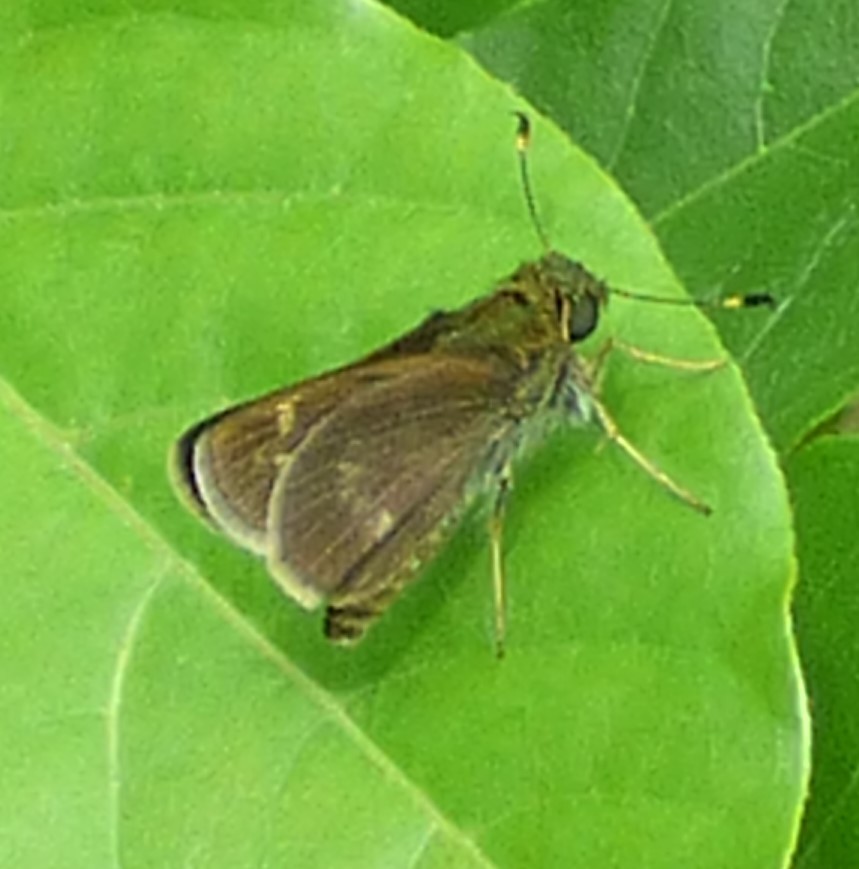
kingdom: Animalia
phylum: Arthropoda
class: Insecta
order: Lepidoptera
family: Hesperiidae
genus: Vernia
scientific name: Vernia verna
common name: Little glassywing
